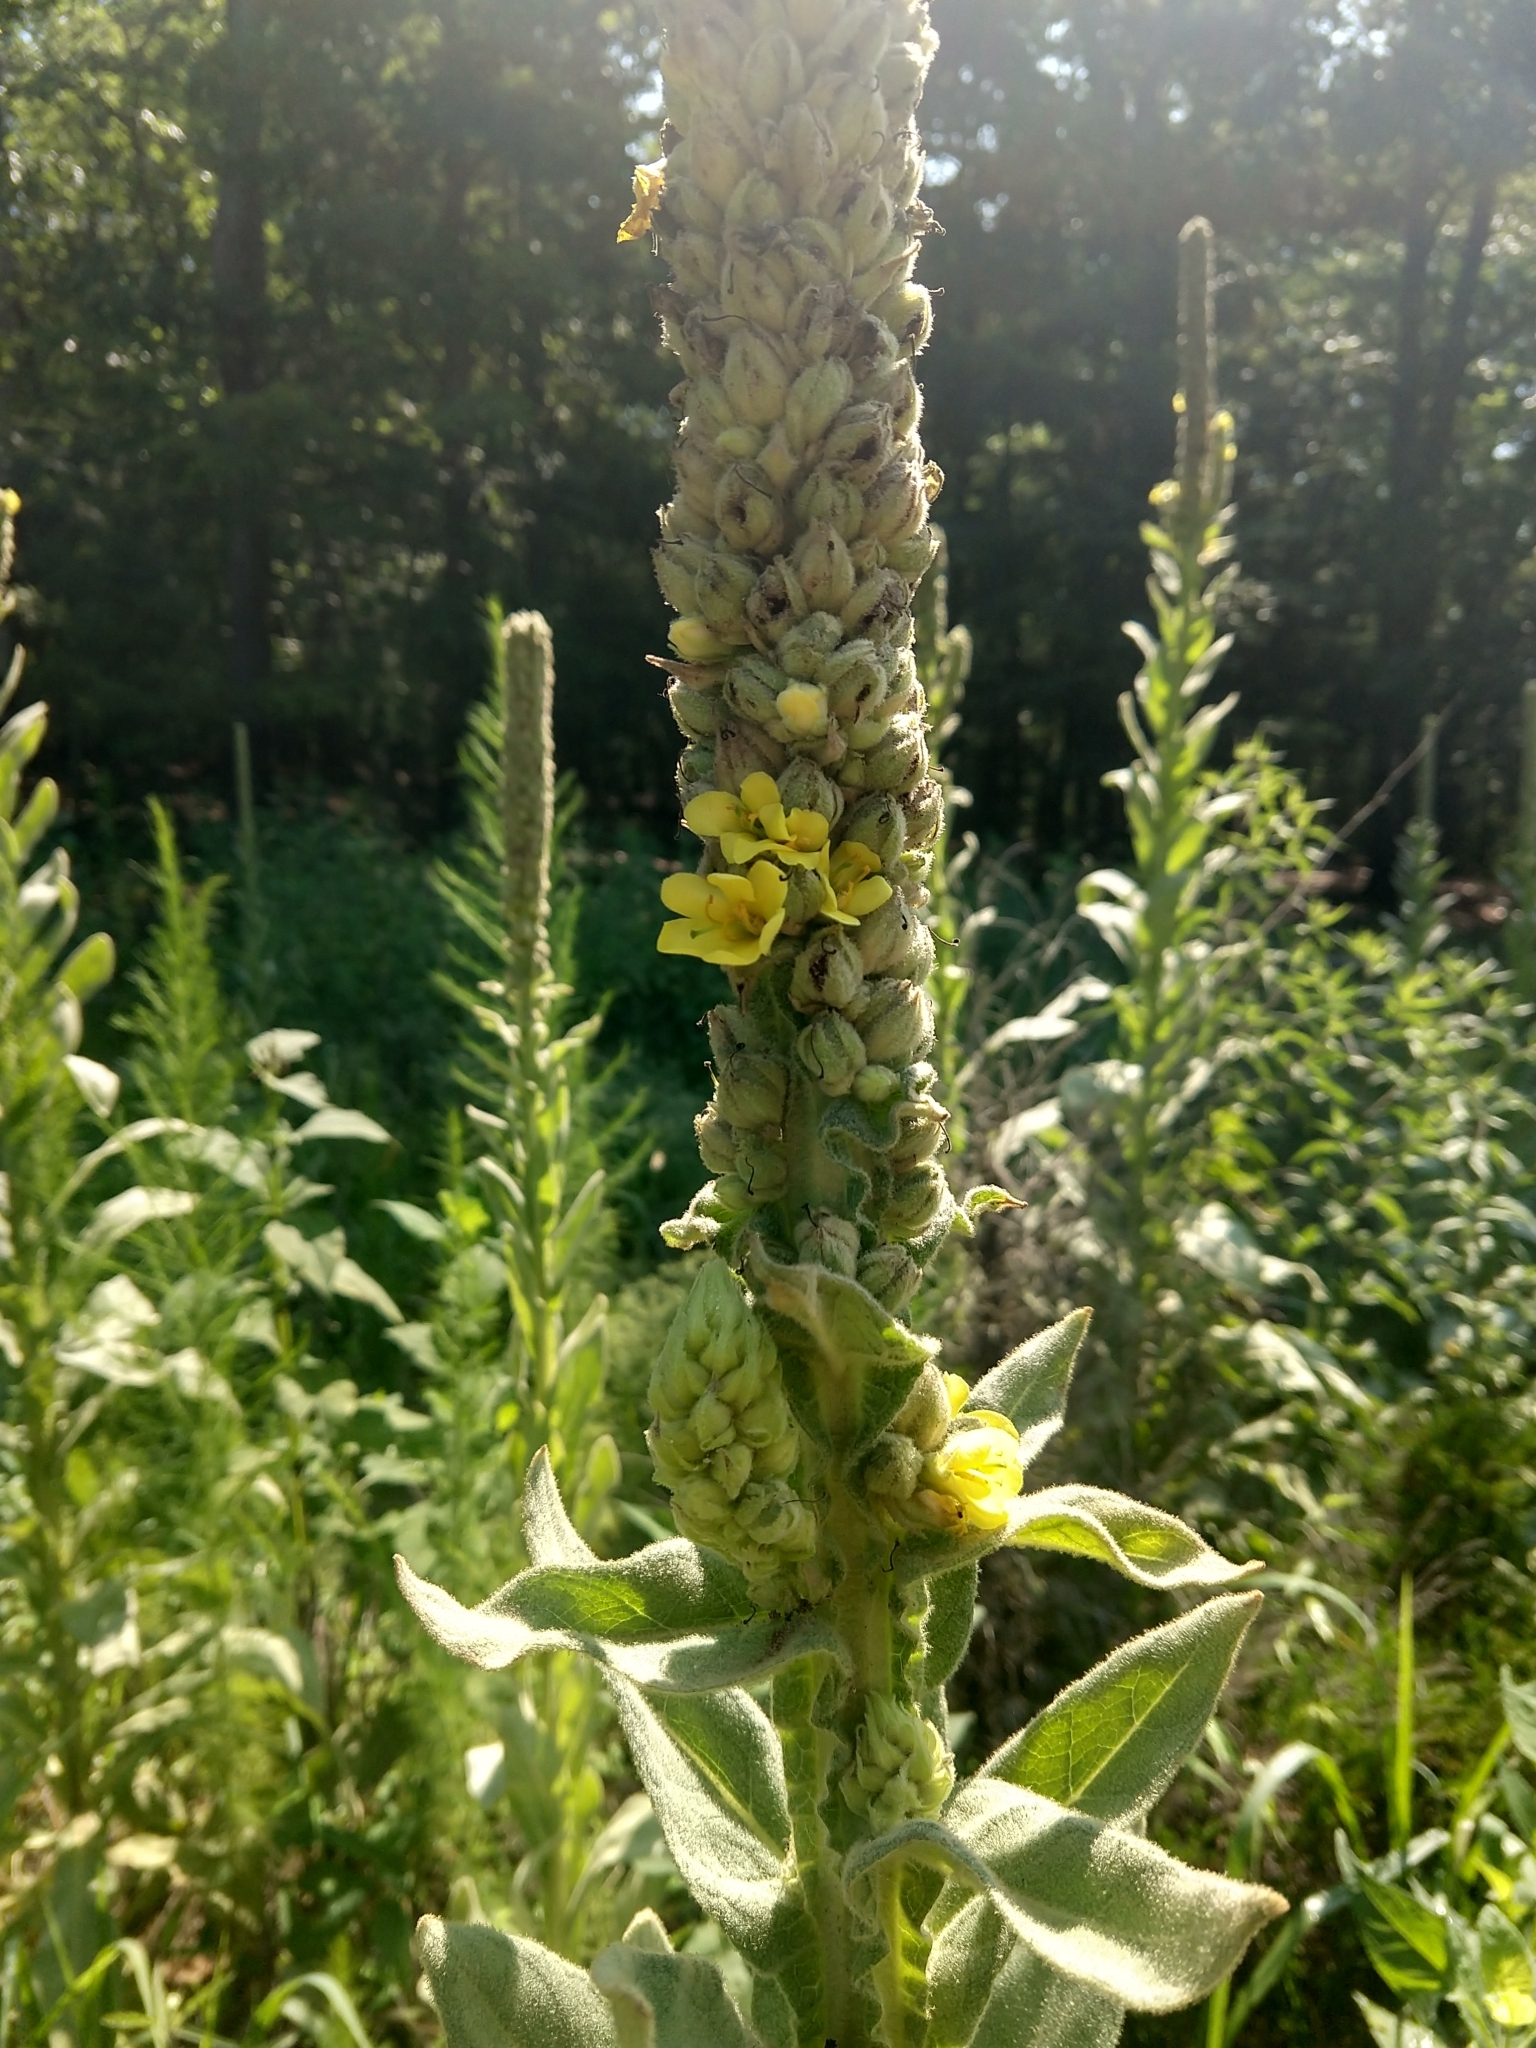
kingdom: Plantae
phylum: Tracheophyta
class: Magnoliopsida
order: Lamiales
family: Scrophulariaceae
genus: Verbascum
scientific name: Verbascum thapsus
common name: Common mullein
